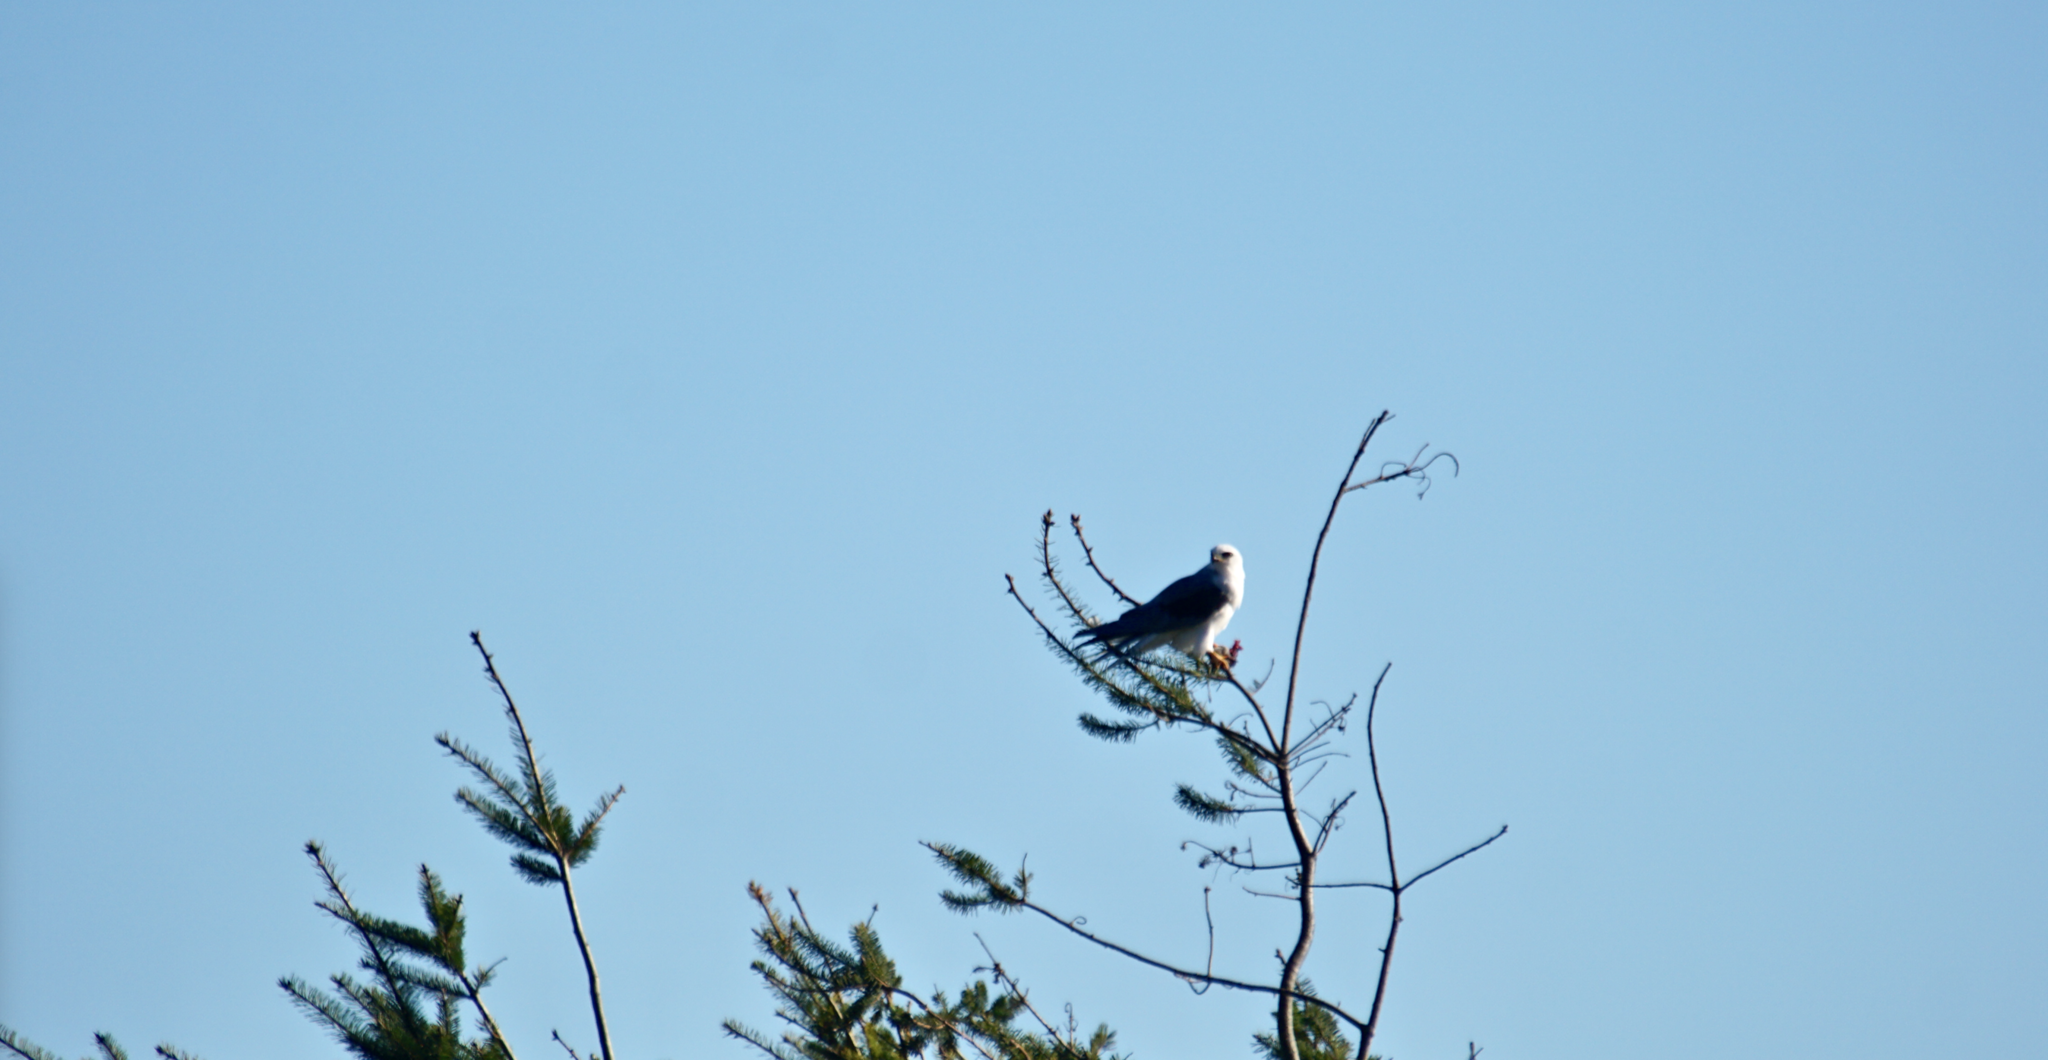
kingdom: Animalia
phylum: Chordata
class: Aves
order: Accipitriformes
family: Accipitridae
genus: Elanus
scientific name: Elanus leucurus
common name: White-tailed kite
